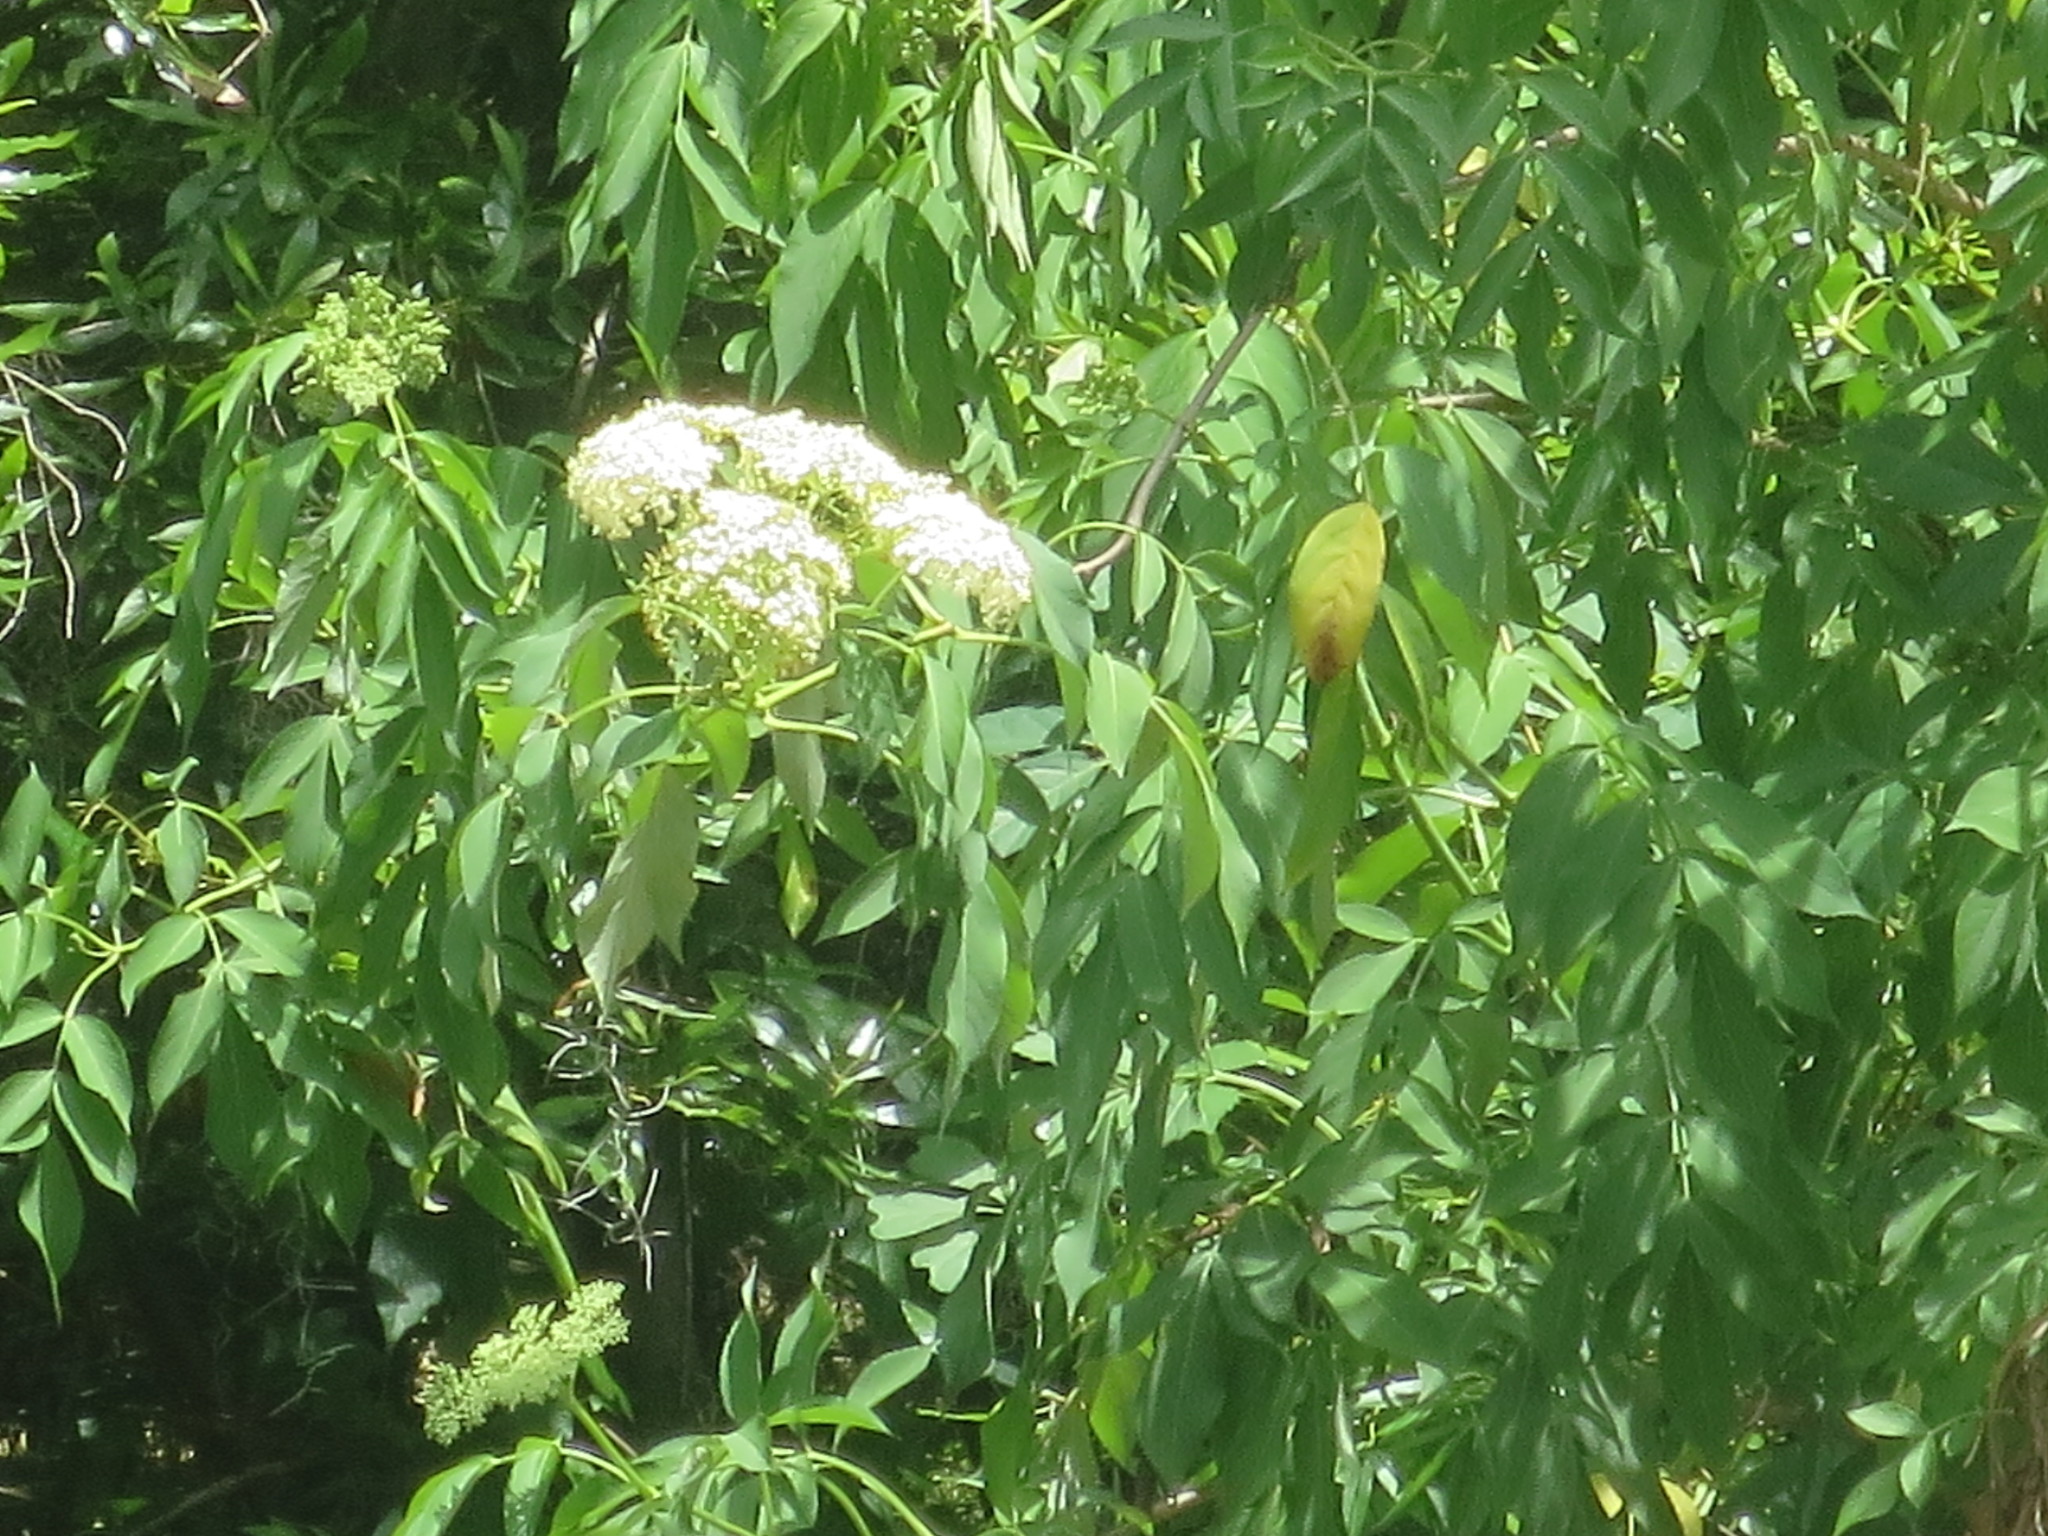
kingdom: Plantae
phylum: Tracheophyta
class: Magnoliopsida
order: Dipsacales
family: Viburnaceae
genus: Sambucus
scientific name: Sambucus canadensis
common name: American elder
